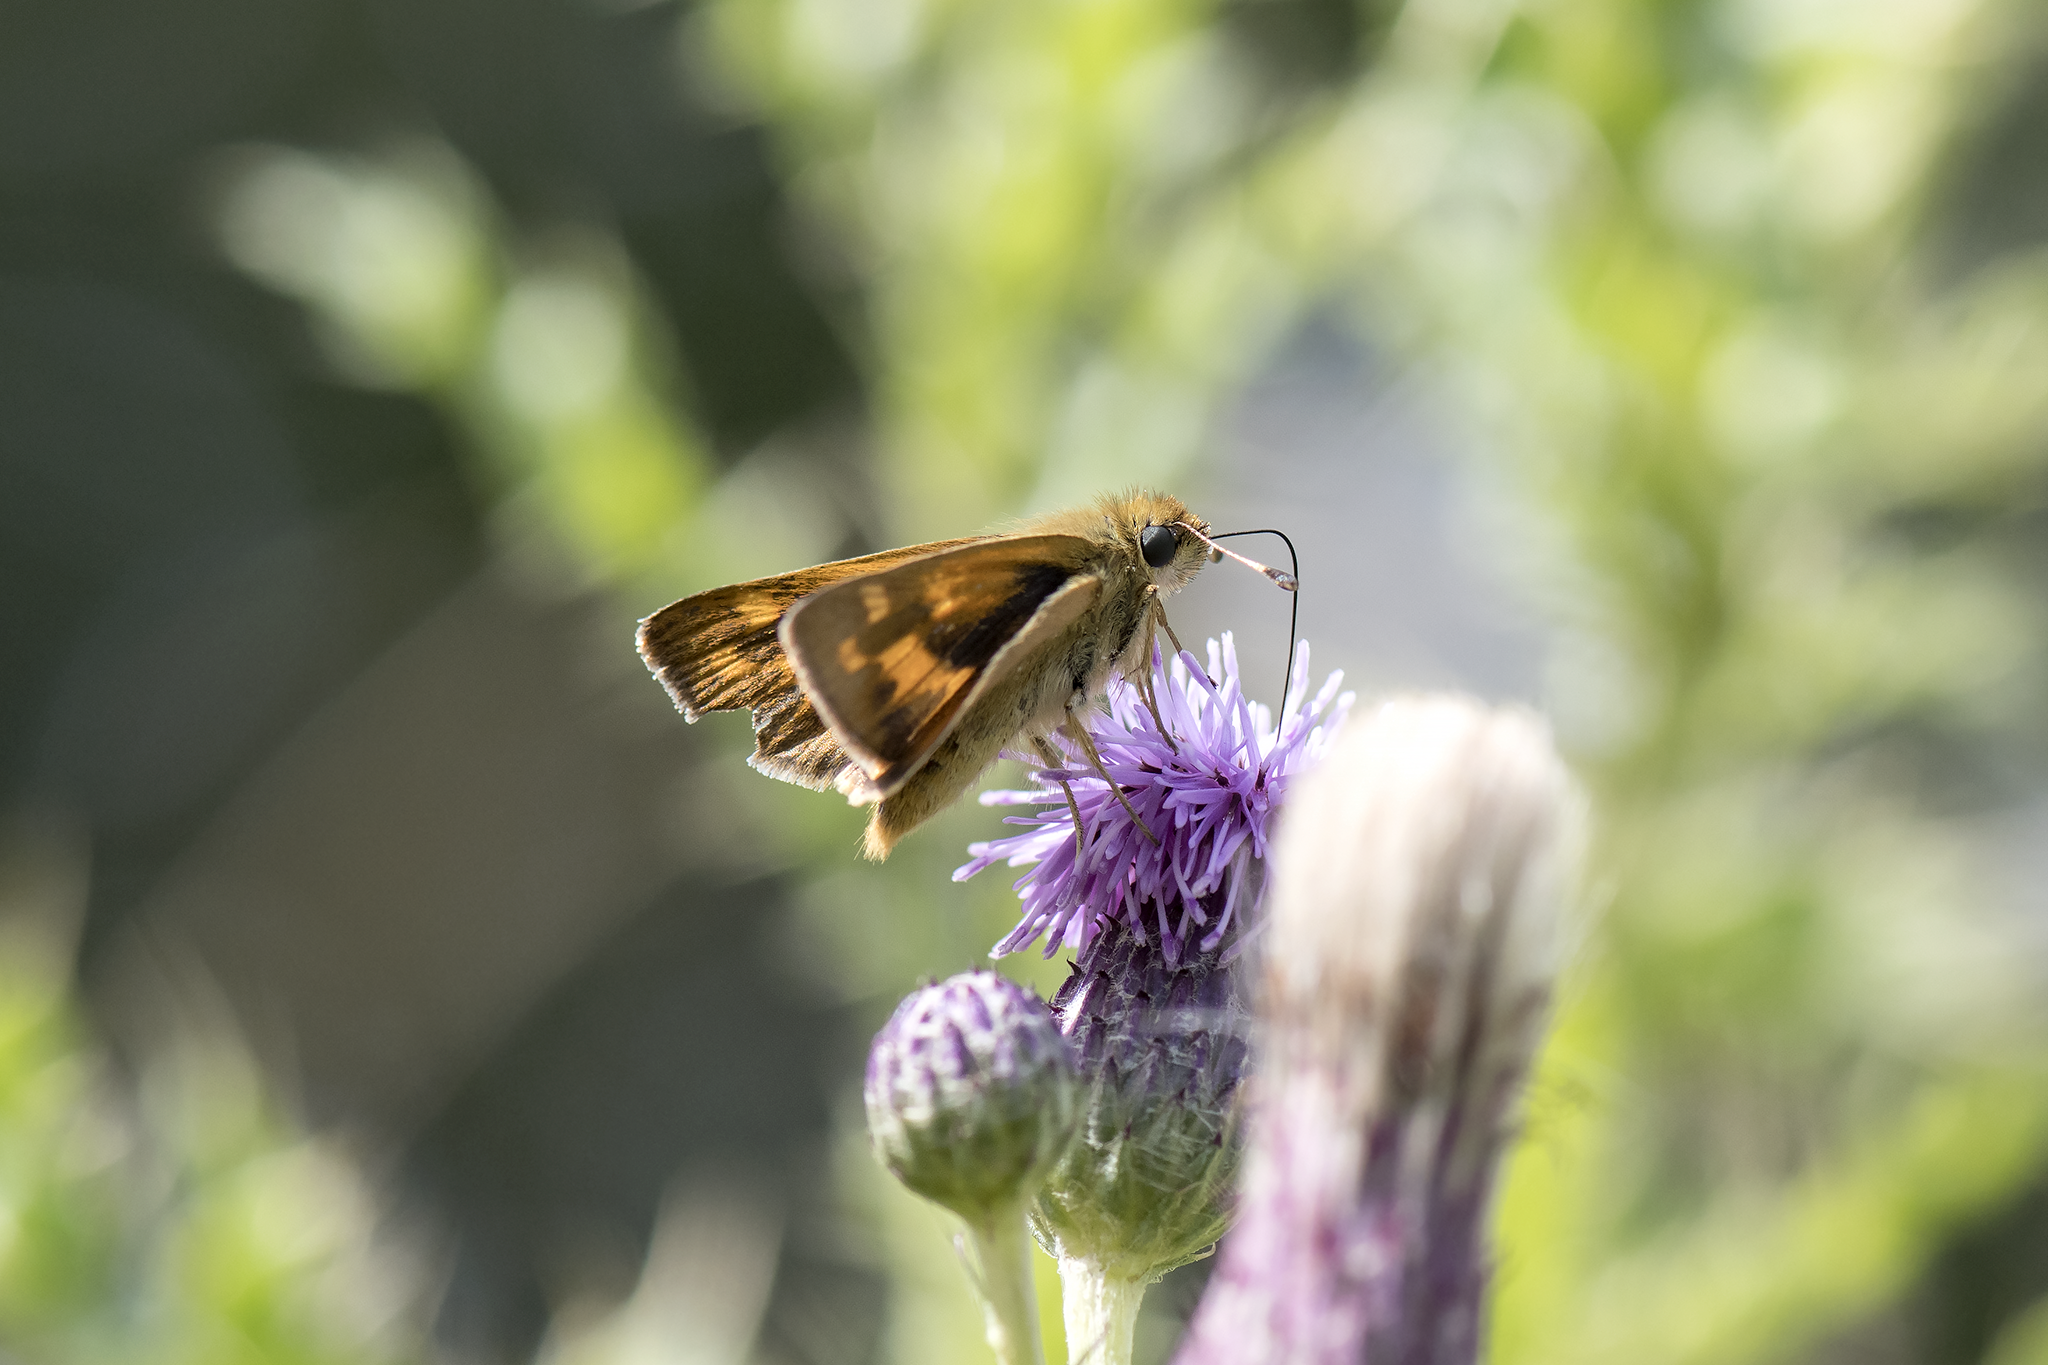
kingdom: Animalia
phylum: Arthropoda
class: Insecta
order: Lepidoptera
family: Hesperiidae
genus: Ochlodes
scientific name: Ochlodes sylvanoides
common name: Woodland skipper
